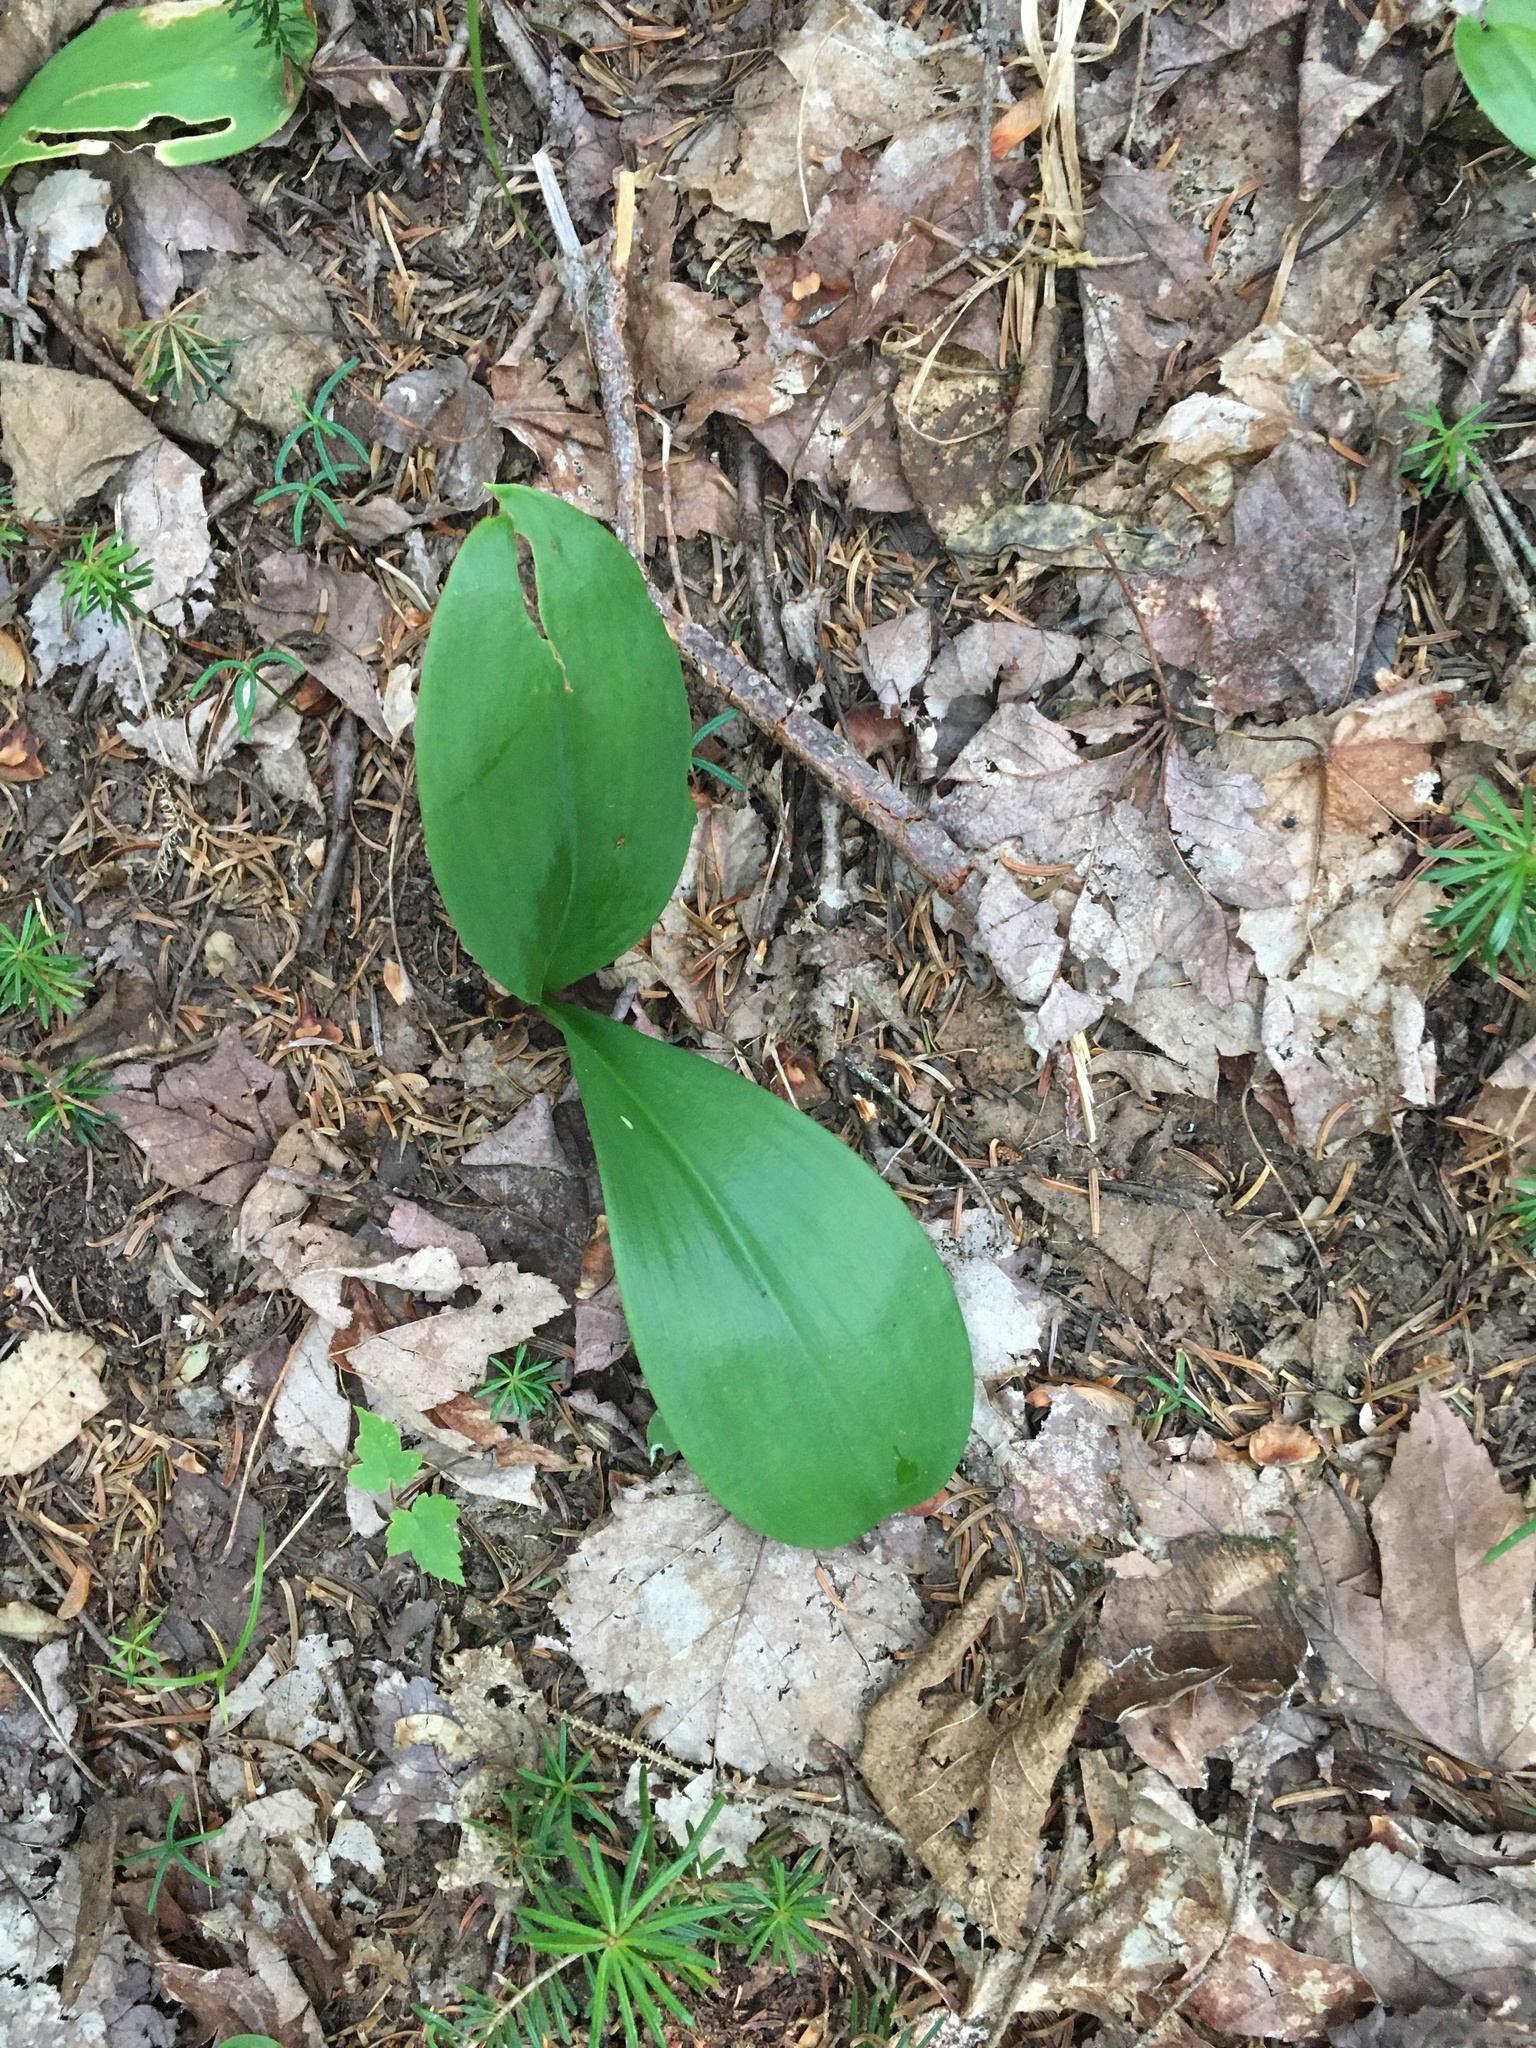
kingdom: Plantae
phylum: Tracheophyta
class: Liliopsida
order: Liliales
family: Liliaceae
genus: Clintonia
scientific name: Clintonia borealis
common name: Yellow clintonia
